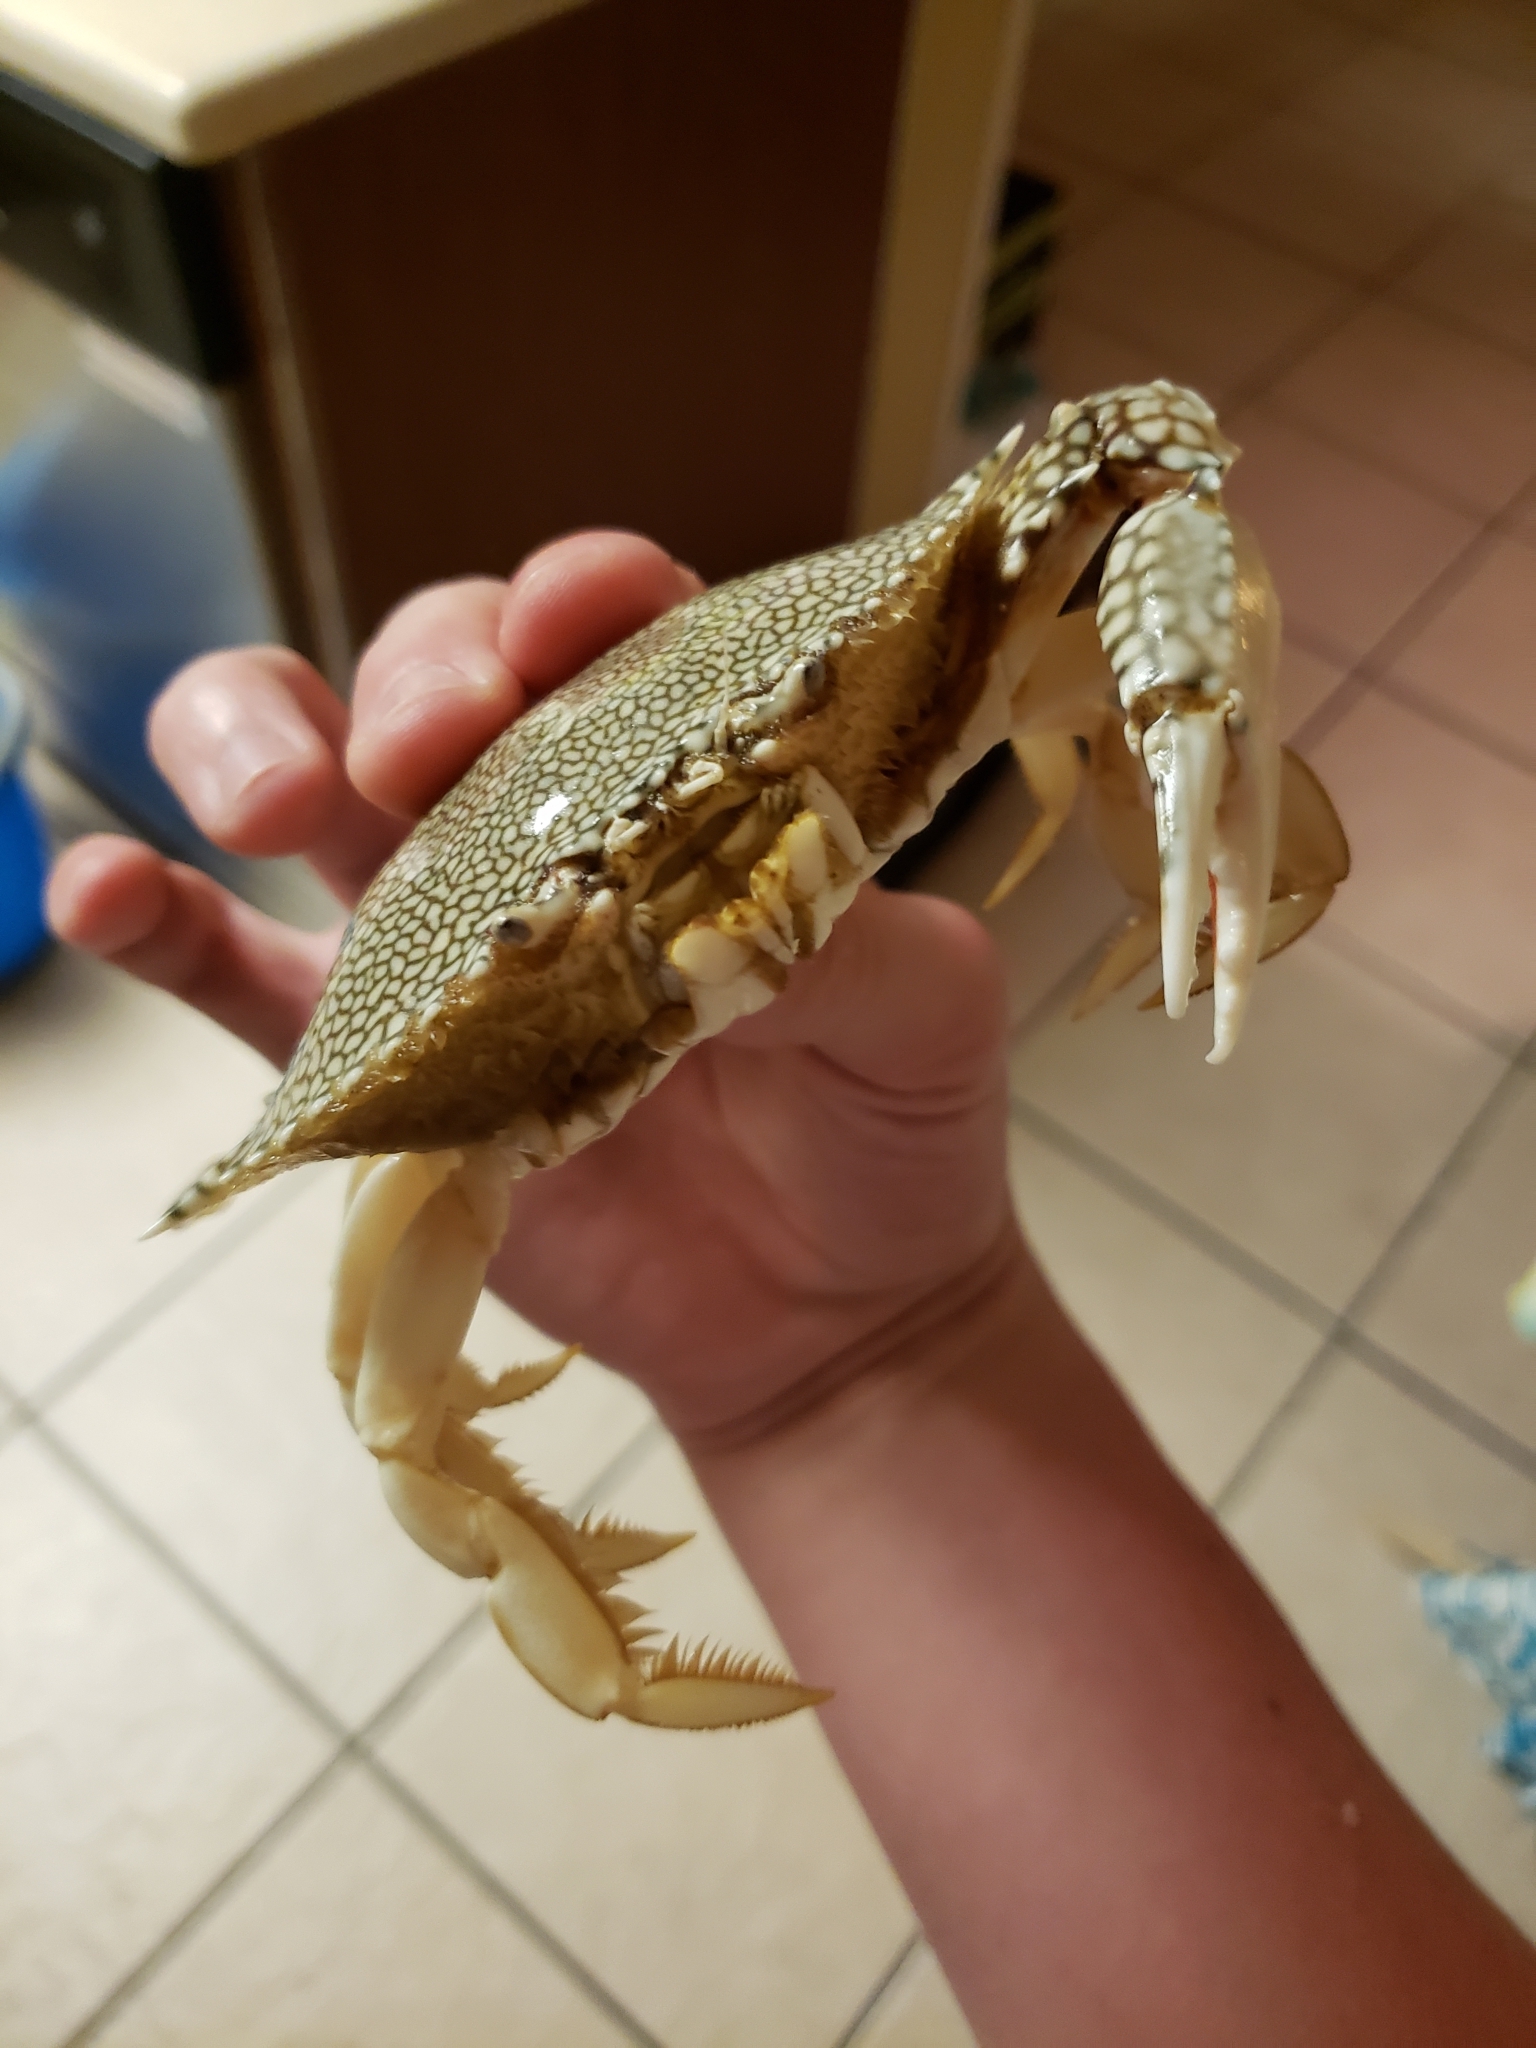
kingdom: Animalia
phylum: Arthropoda
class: Malacostraca
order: Decapoda
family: Portunidae
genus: Arenaeus
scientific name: Arenaeus cribrarius
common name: Speckled crab
